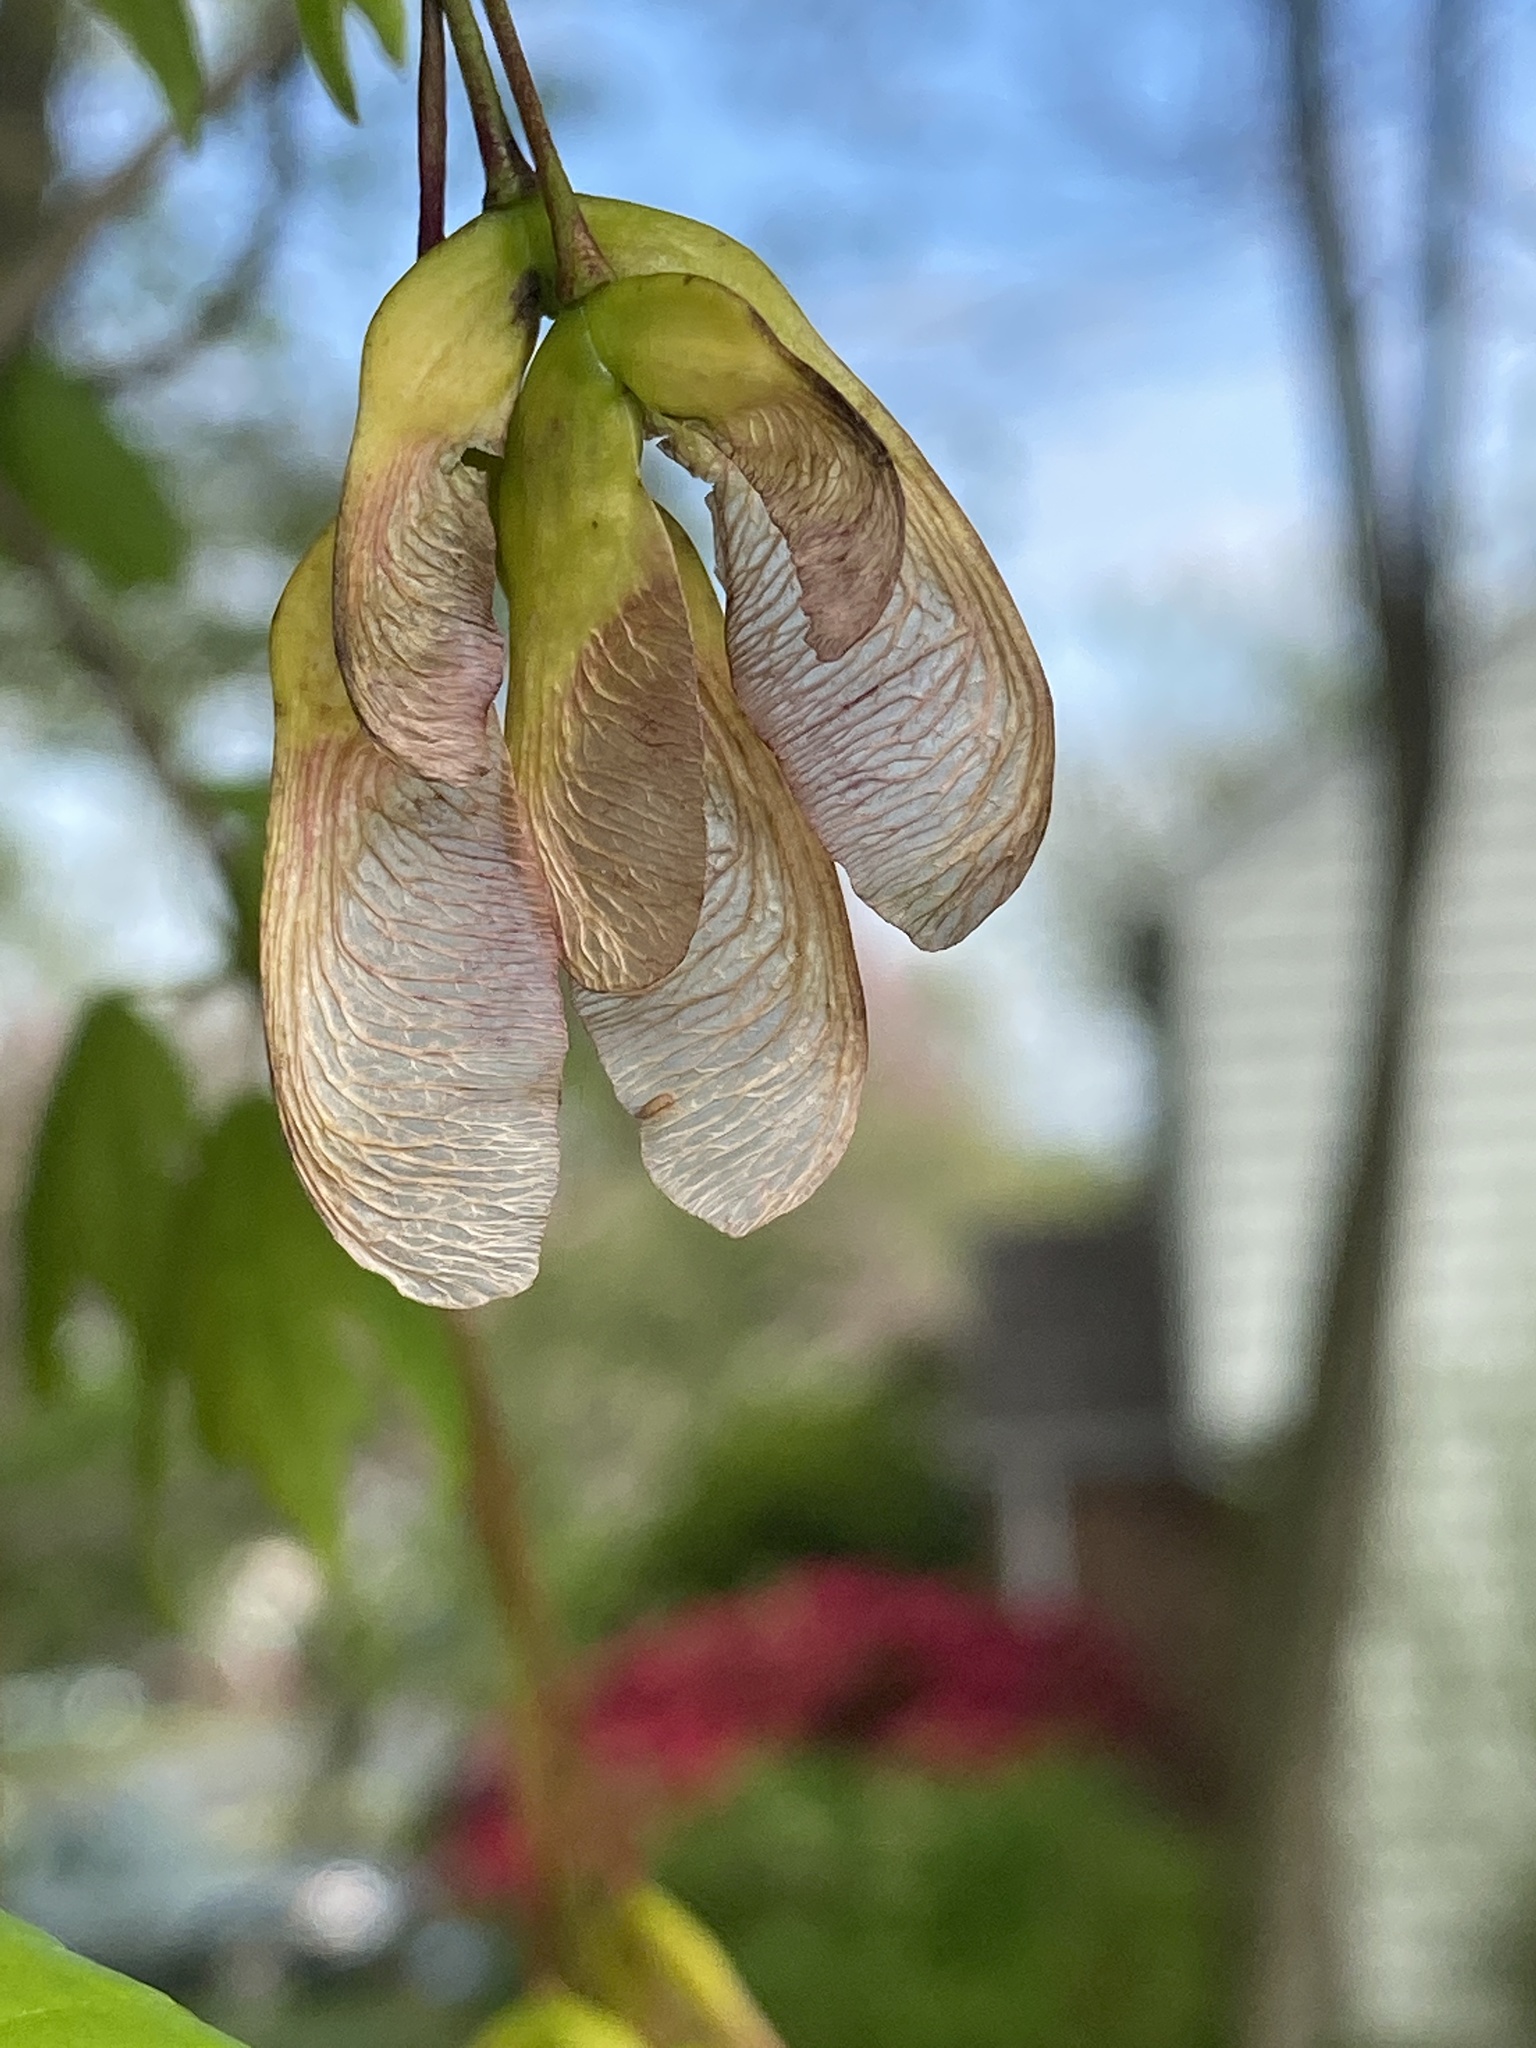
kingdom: Plantae
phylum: Tracheophyta
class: Magnoliopsida
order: Sapindales
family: Sapindaceae
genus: Acer
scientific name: Acer rubrum
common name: Red maple
